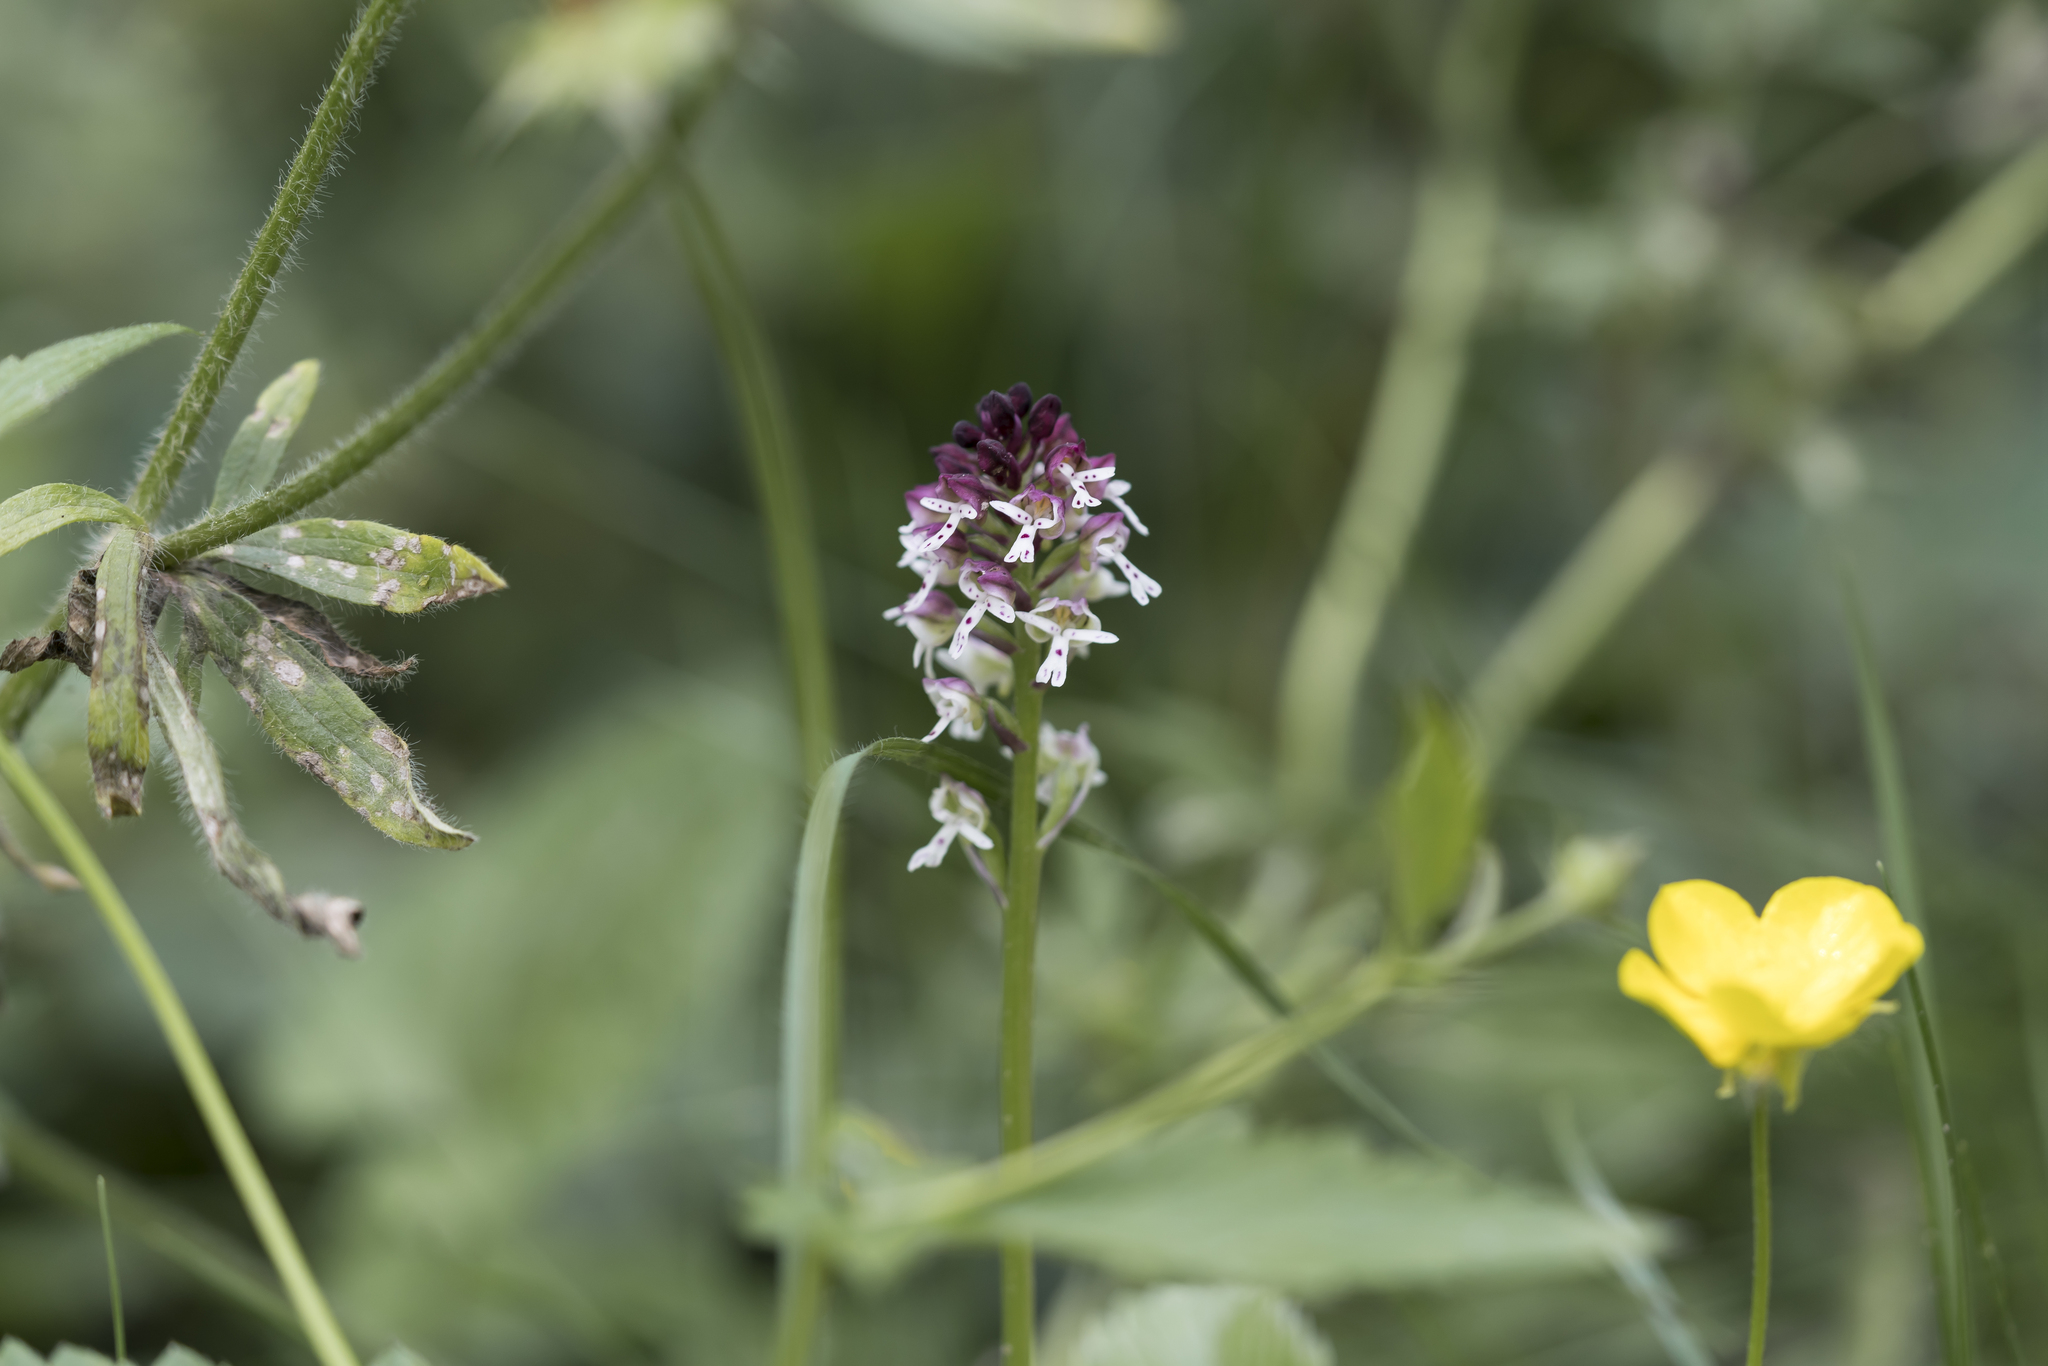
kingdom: Plantae
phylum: Tracheophyta
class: Liliopsida
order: Asparagales
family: Orchidaceae
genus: Neotinea
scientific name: Neotinea ustulata
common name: Burnt orchid
